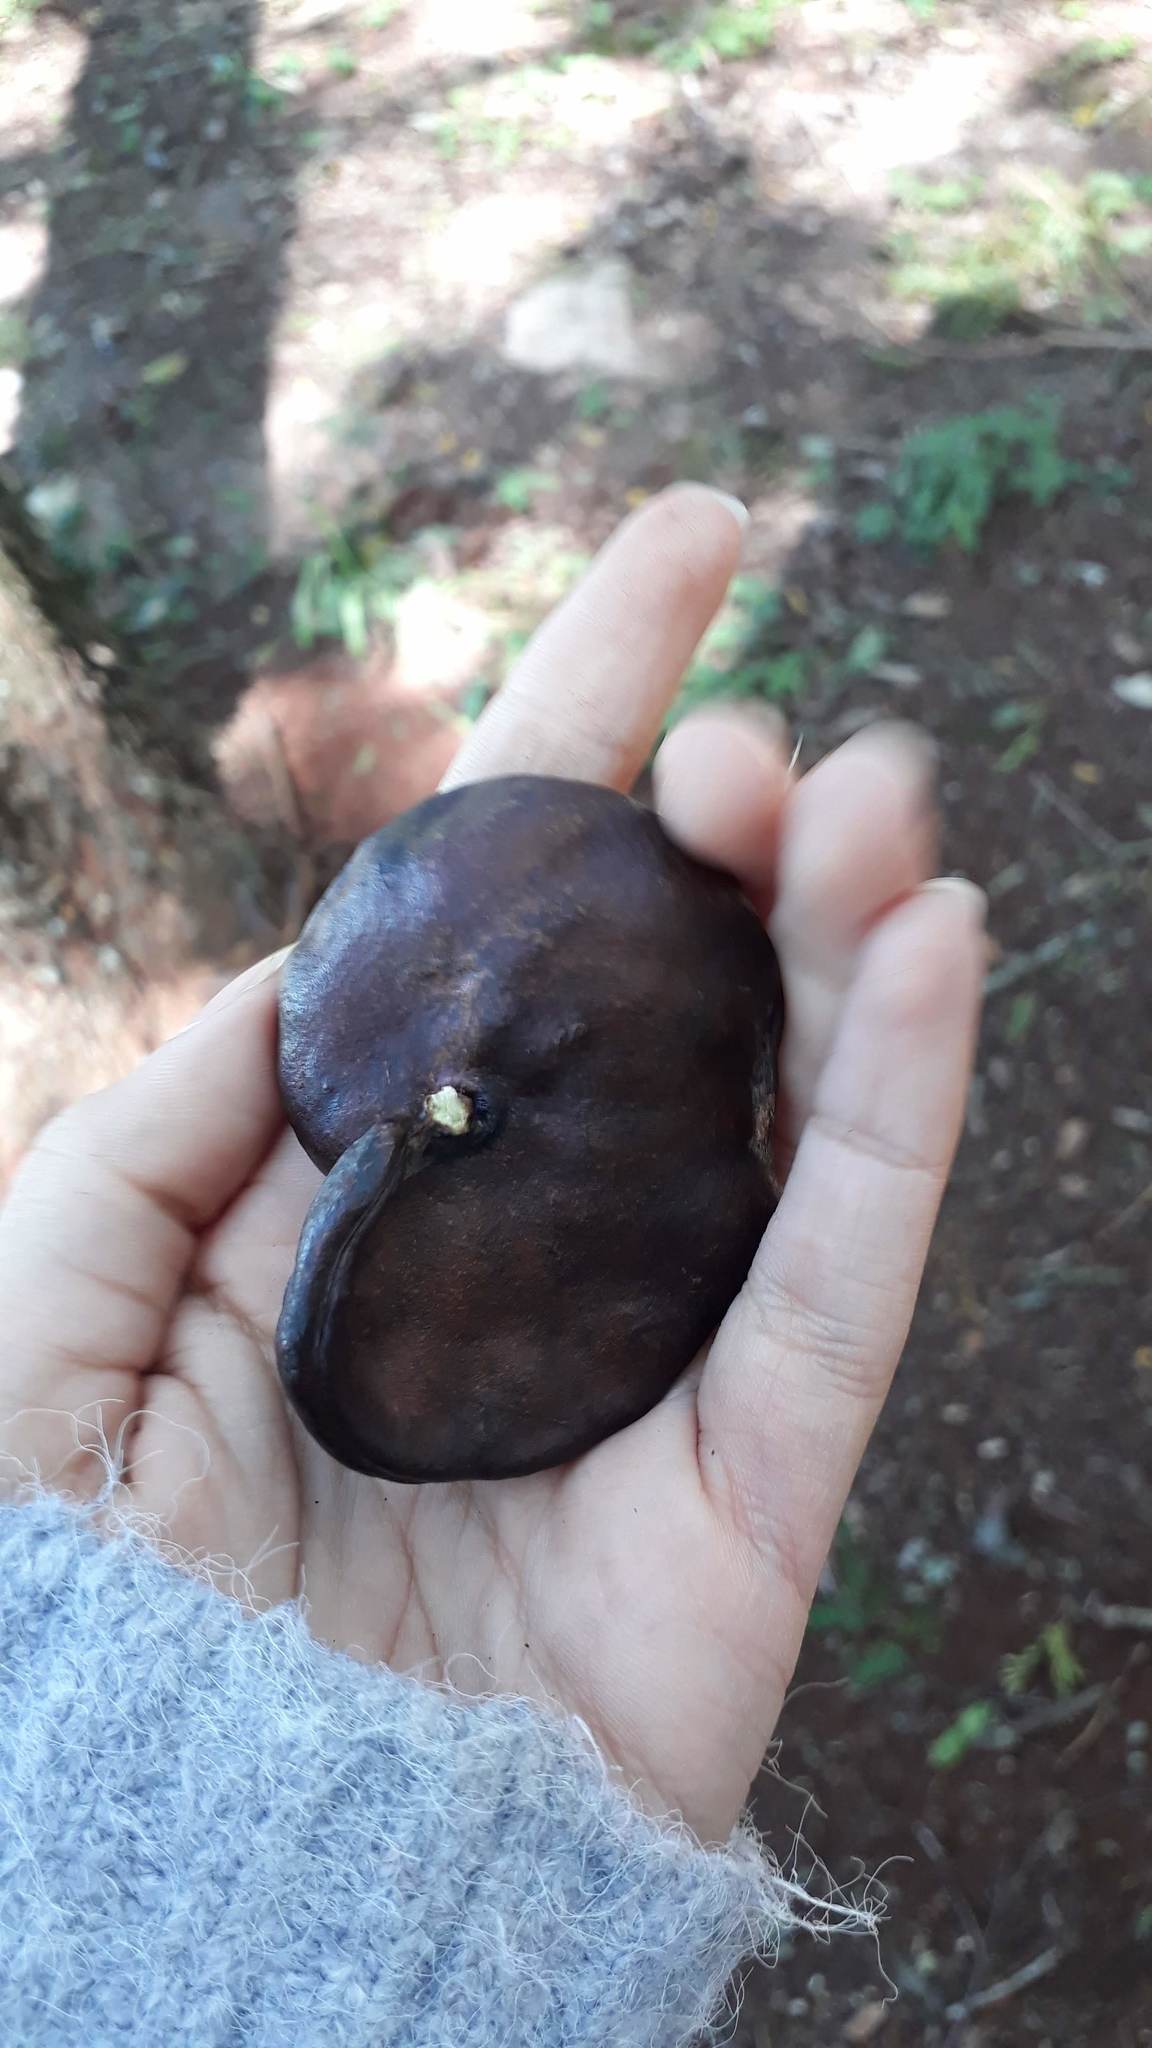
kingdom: Plantae
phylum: Tracheophyta
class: Magnoliopsida
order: Fabales
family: Fabaceae
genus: Enterolobium
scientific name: Enterolobium contortisiliquum
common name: Pacara earpod tree
